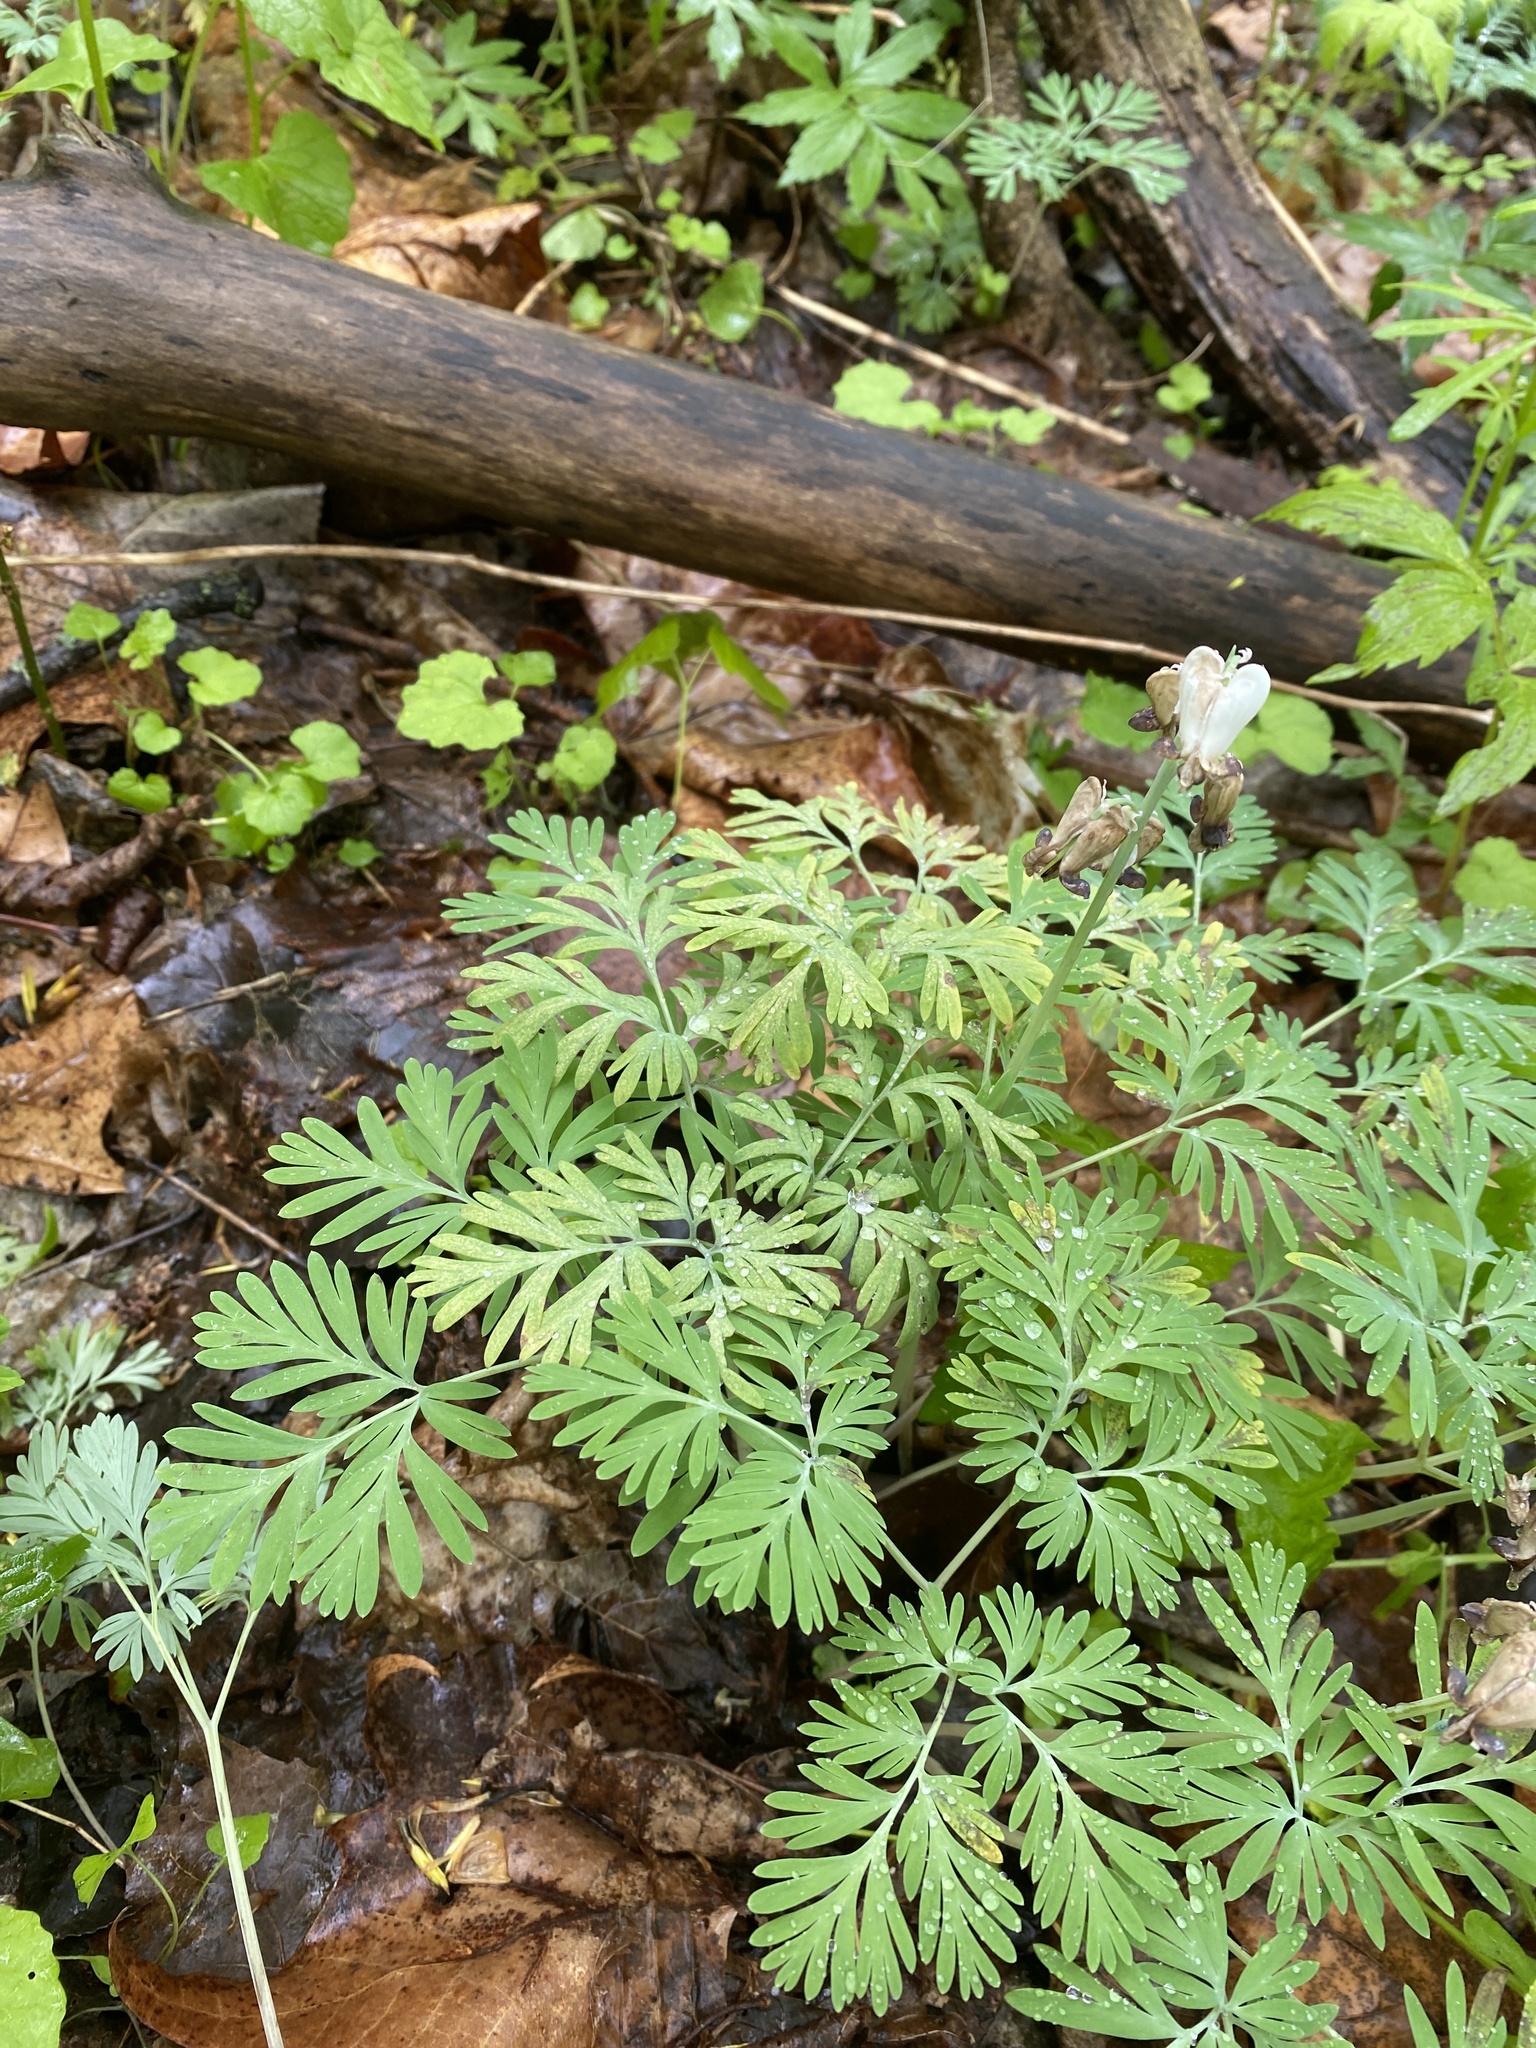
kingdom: Plantae
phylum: Tracheophyta
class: Magnoliopsida
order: Ranunculales
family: Papaveraceae
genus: Dicentra
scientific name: Dicentra canadensis
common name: Squirrel-corn
